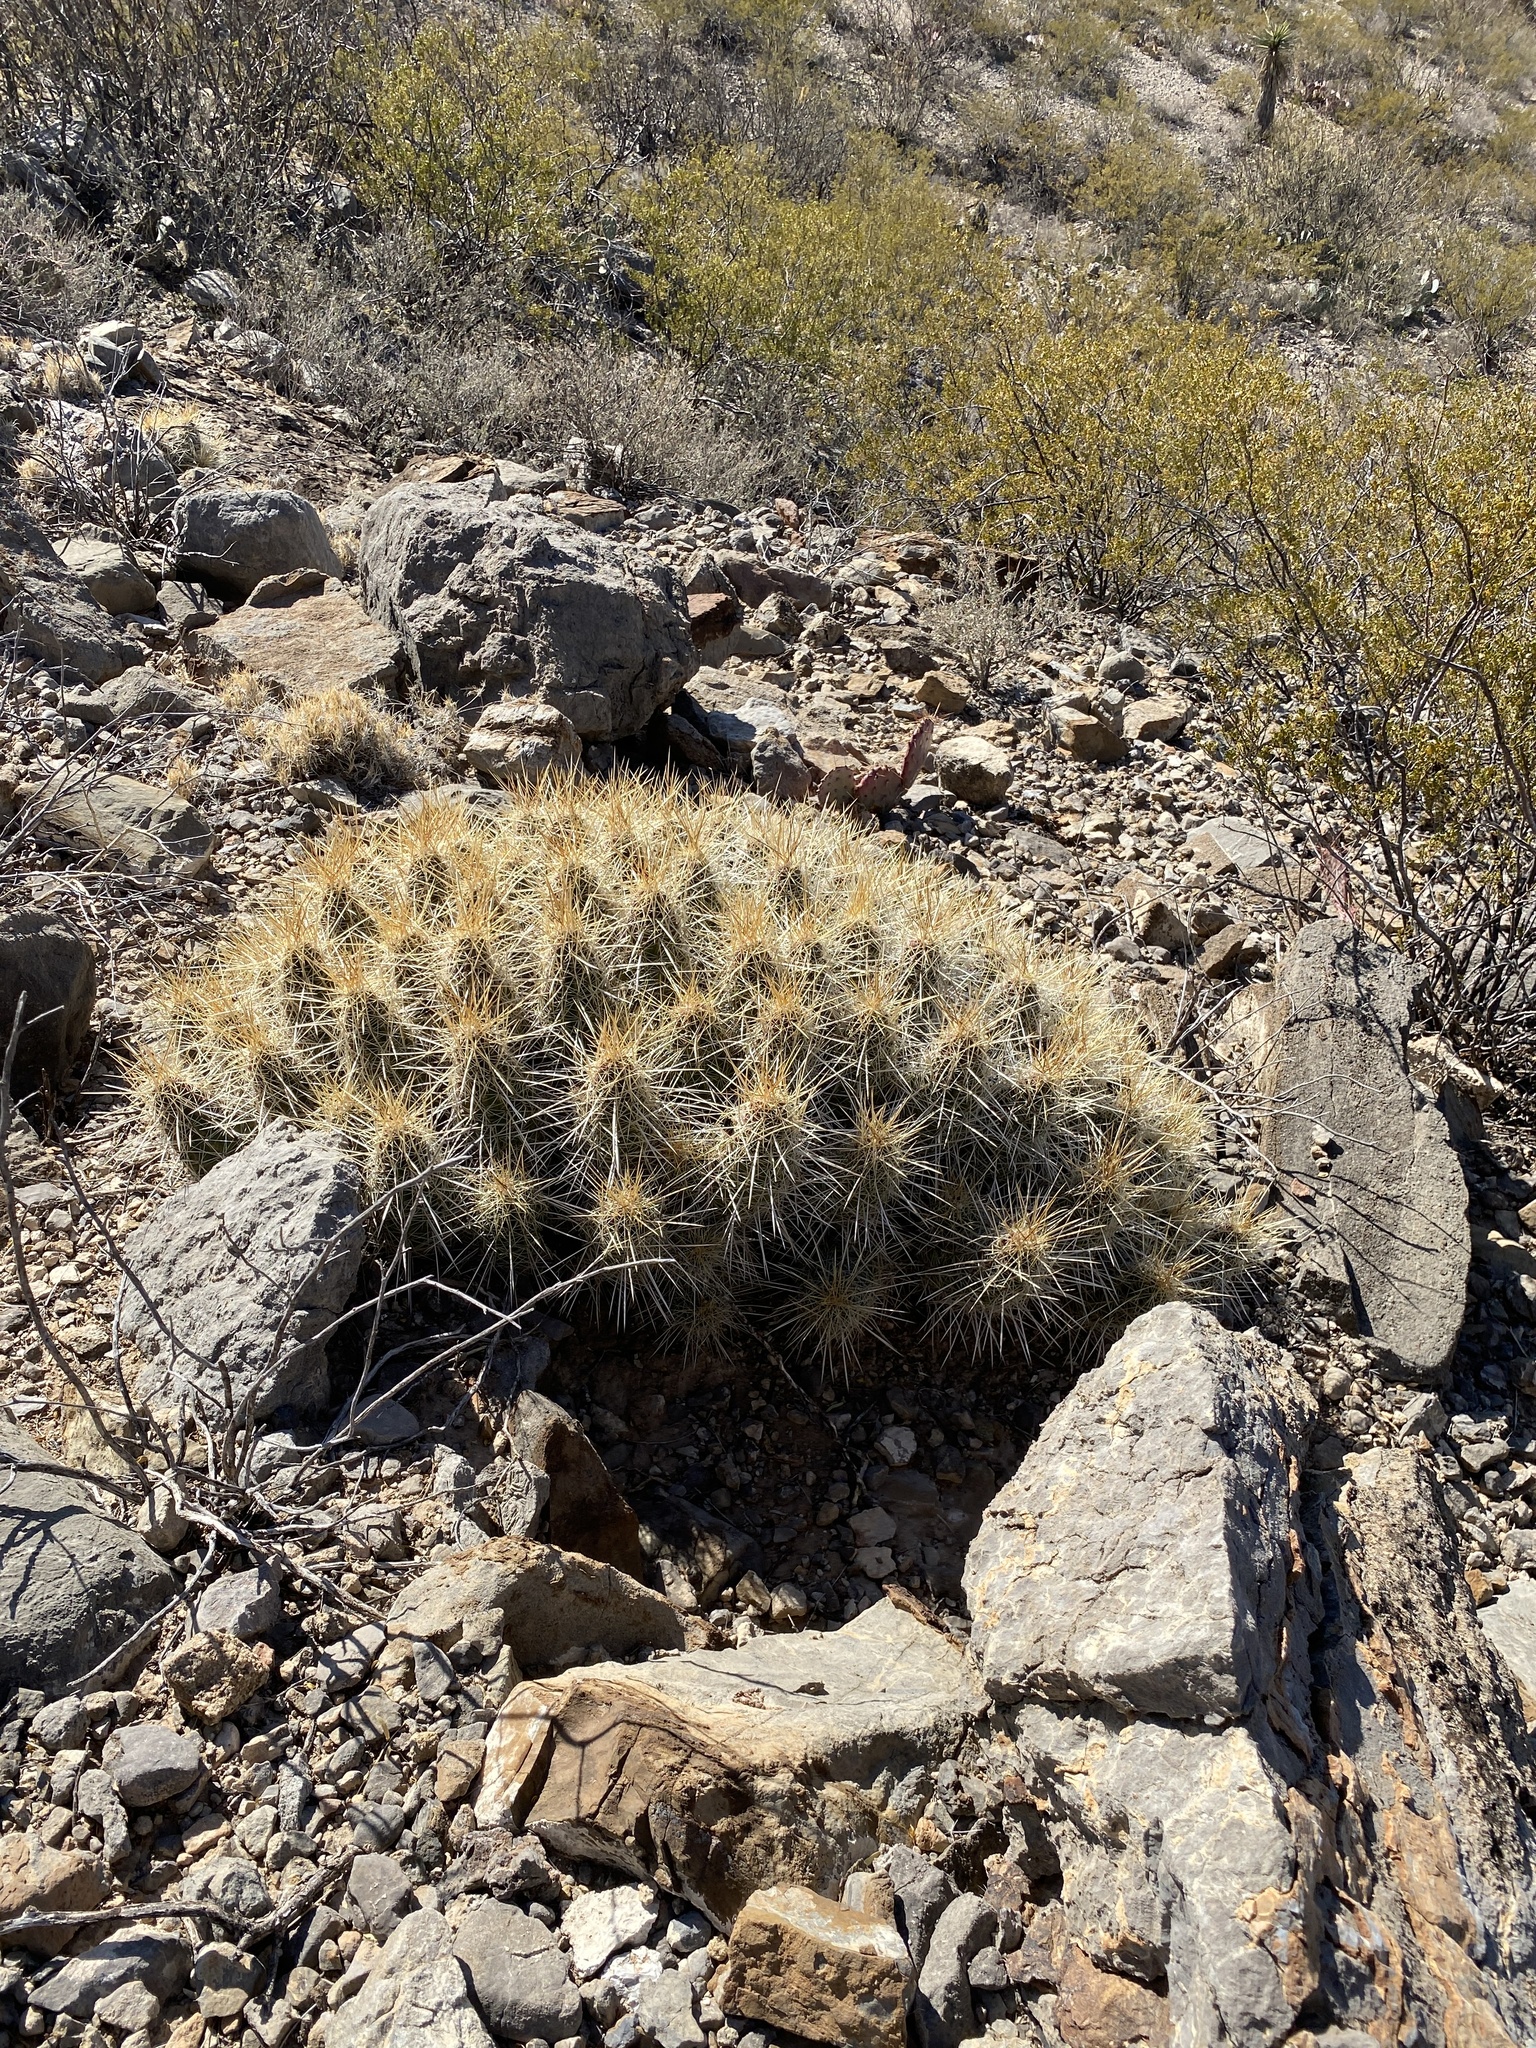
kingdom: Plantae
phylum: Tracheophyta
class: Magnoliopsida
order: Caryophyllales
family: Cactaceae
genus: Echinocereus
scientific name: Echinocereus stramineus
